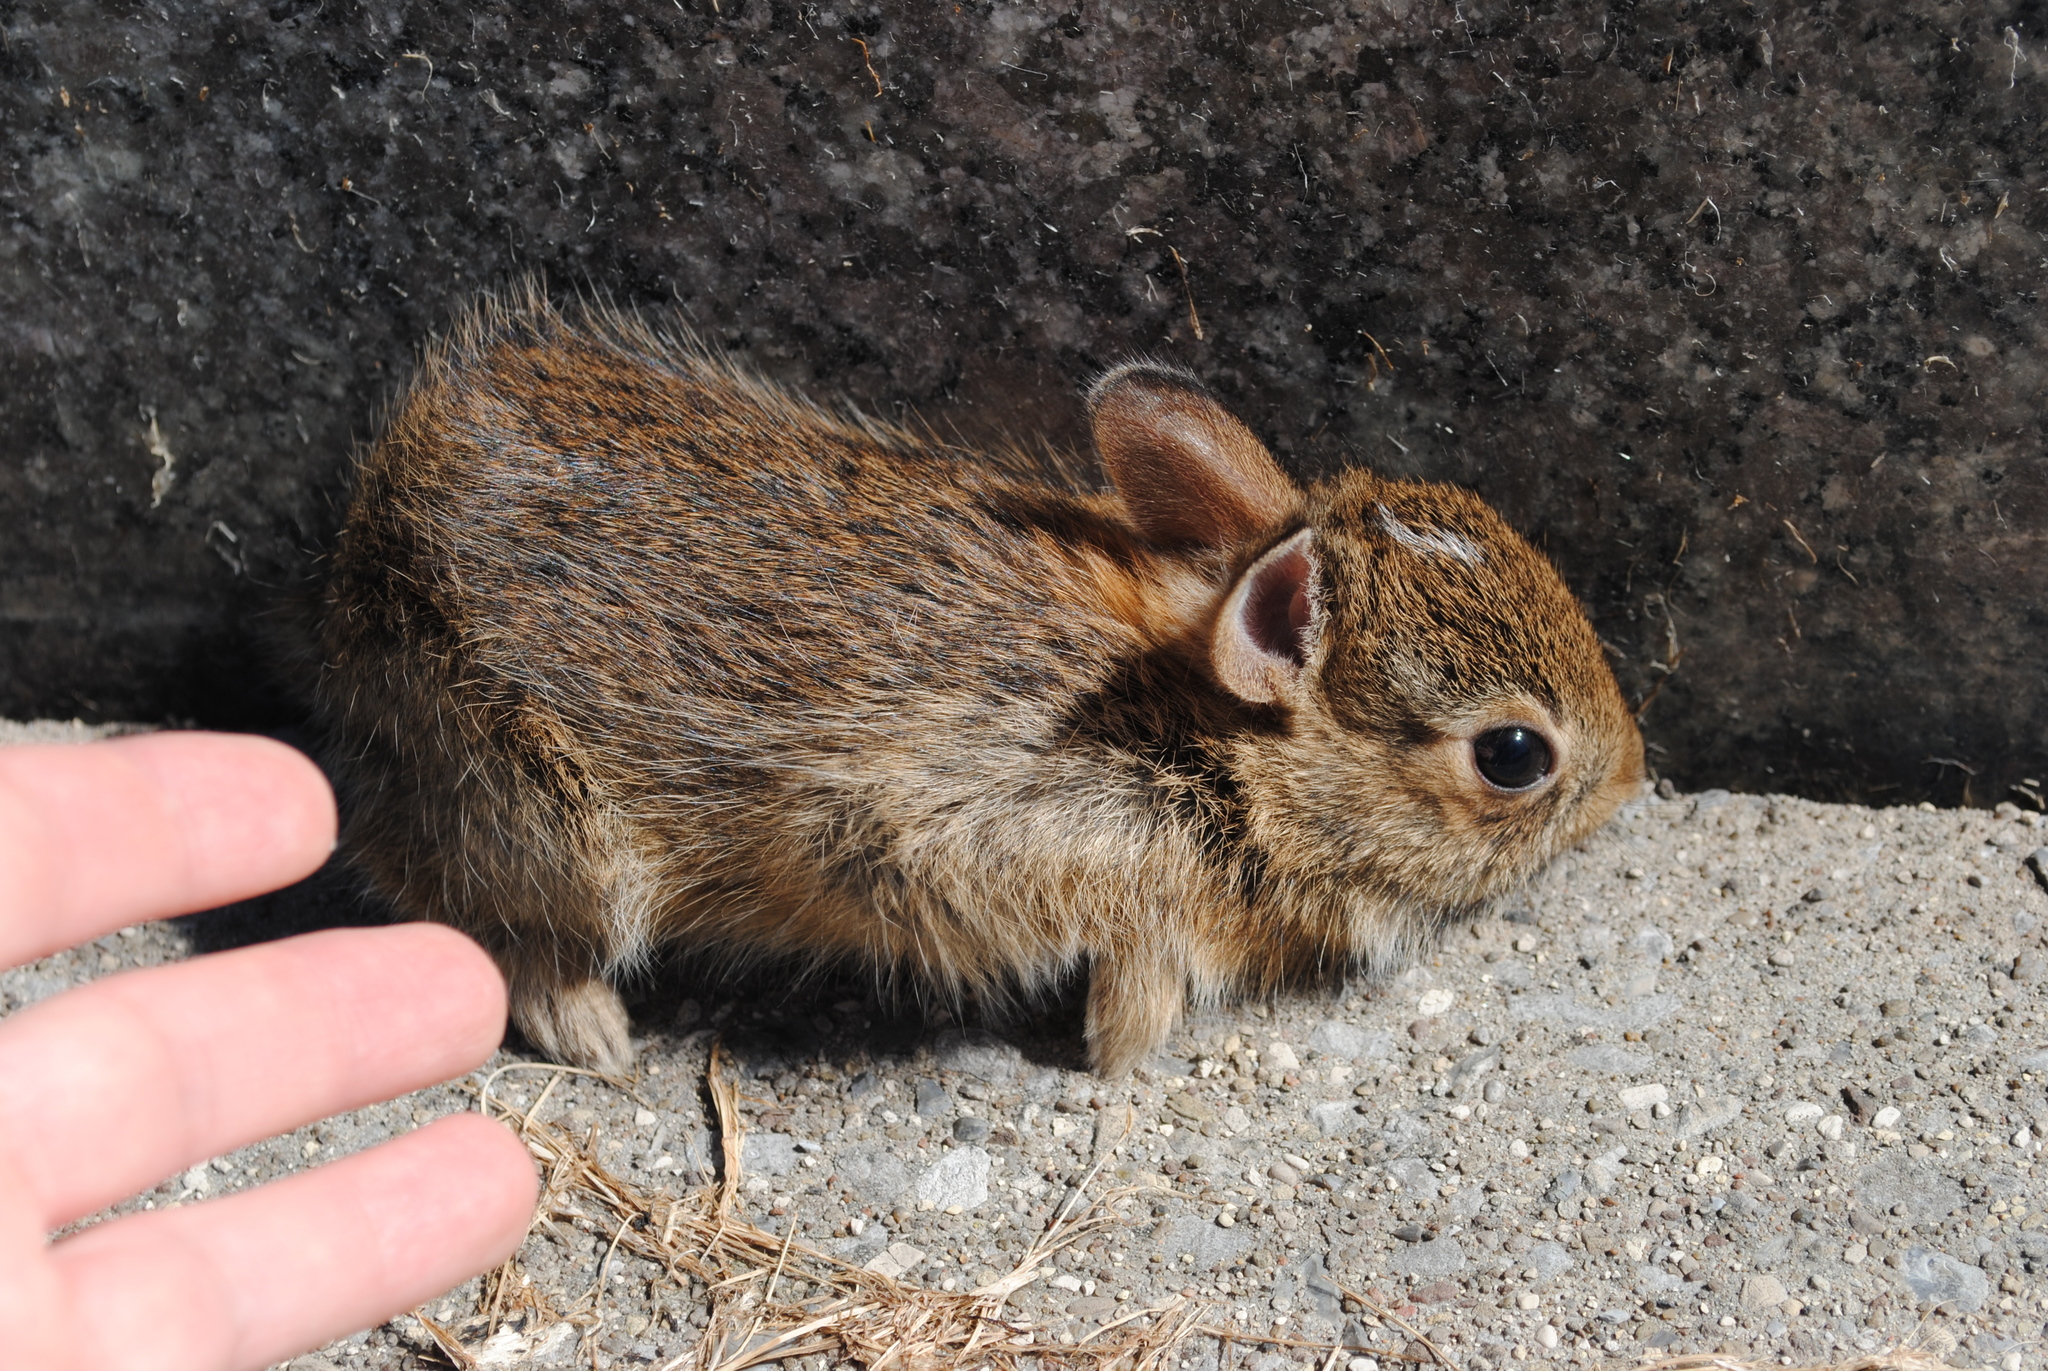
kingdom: Animalia
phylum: Chordata
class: Mammalia
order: Lagomorpha
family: Leporidae
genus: Sylvilagus
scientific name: Sylvilagus floridanus
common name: Eastern cottontail
